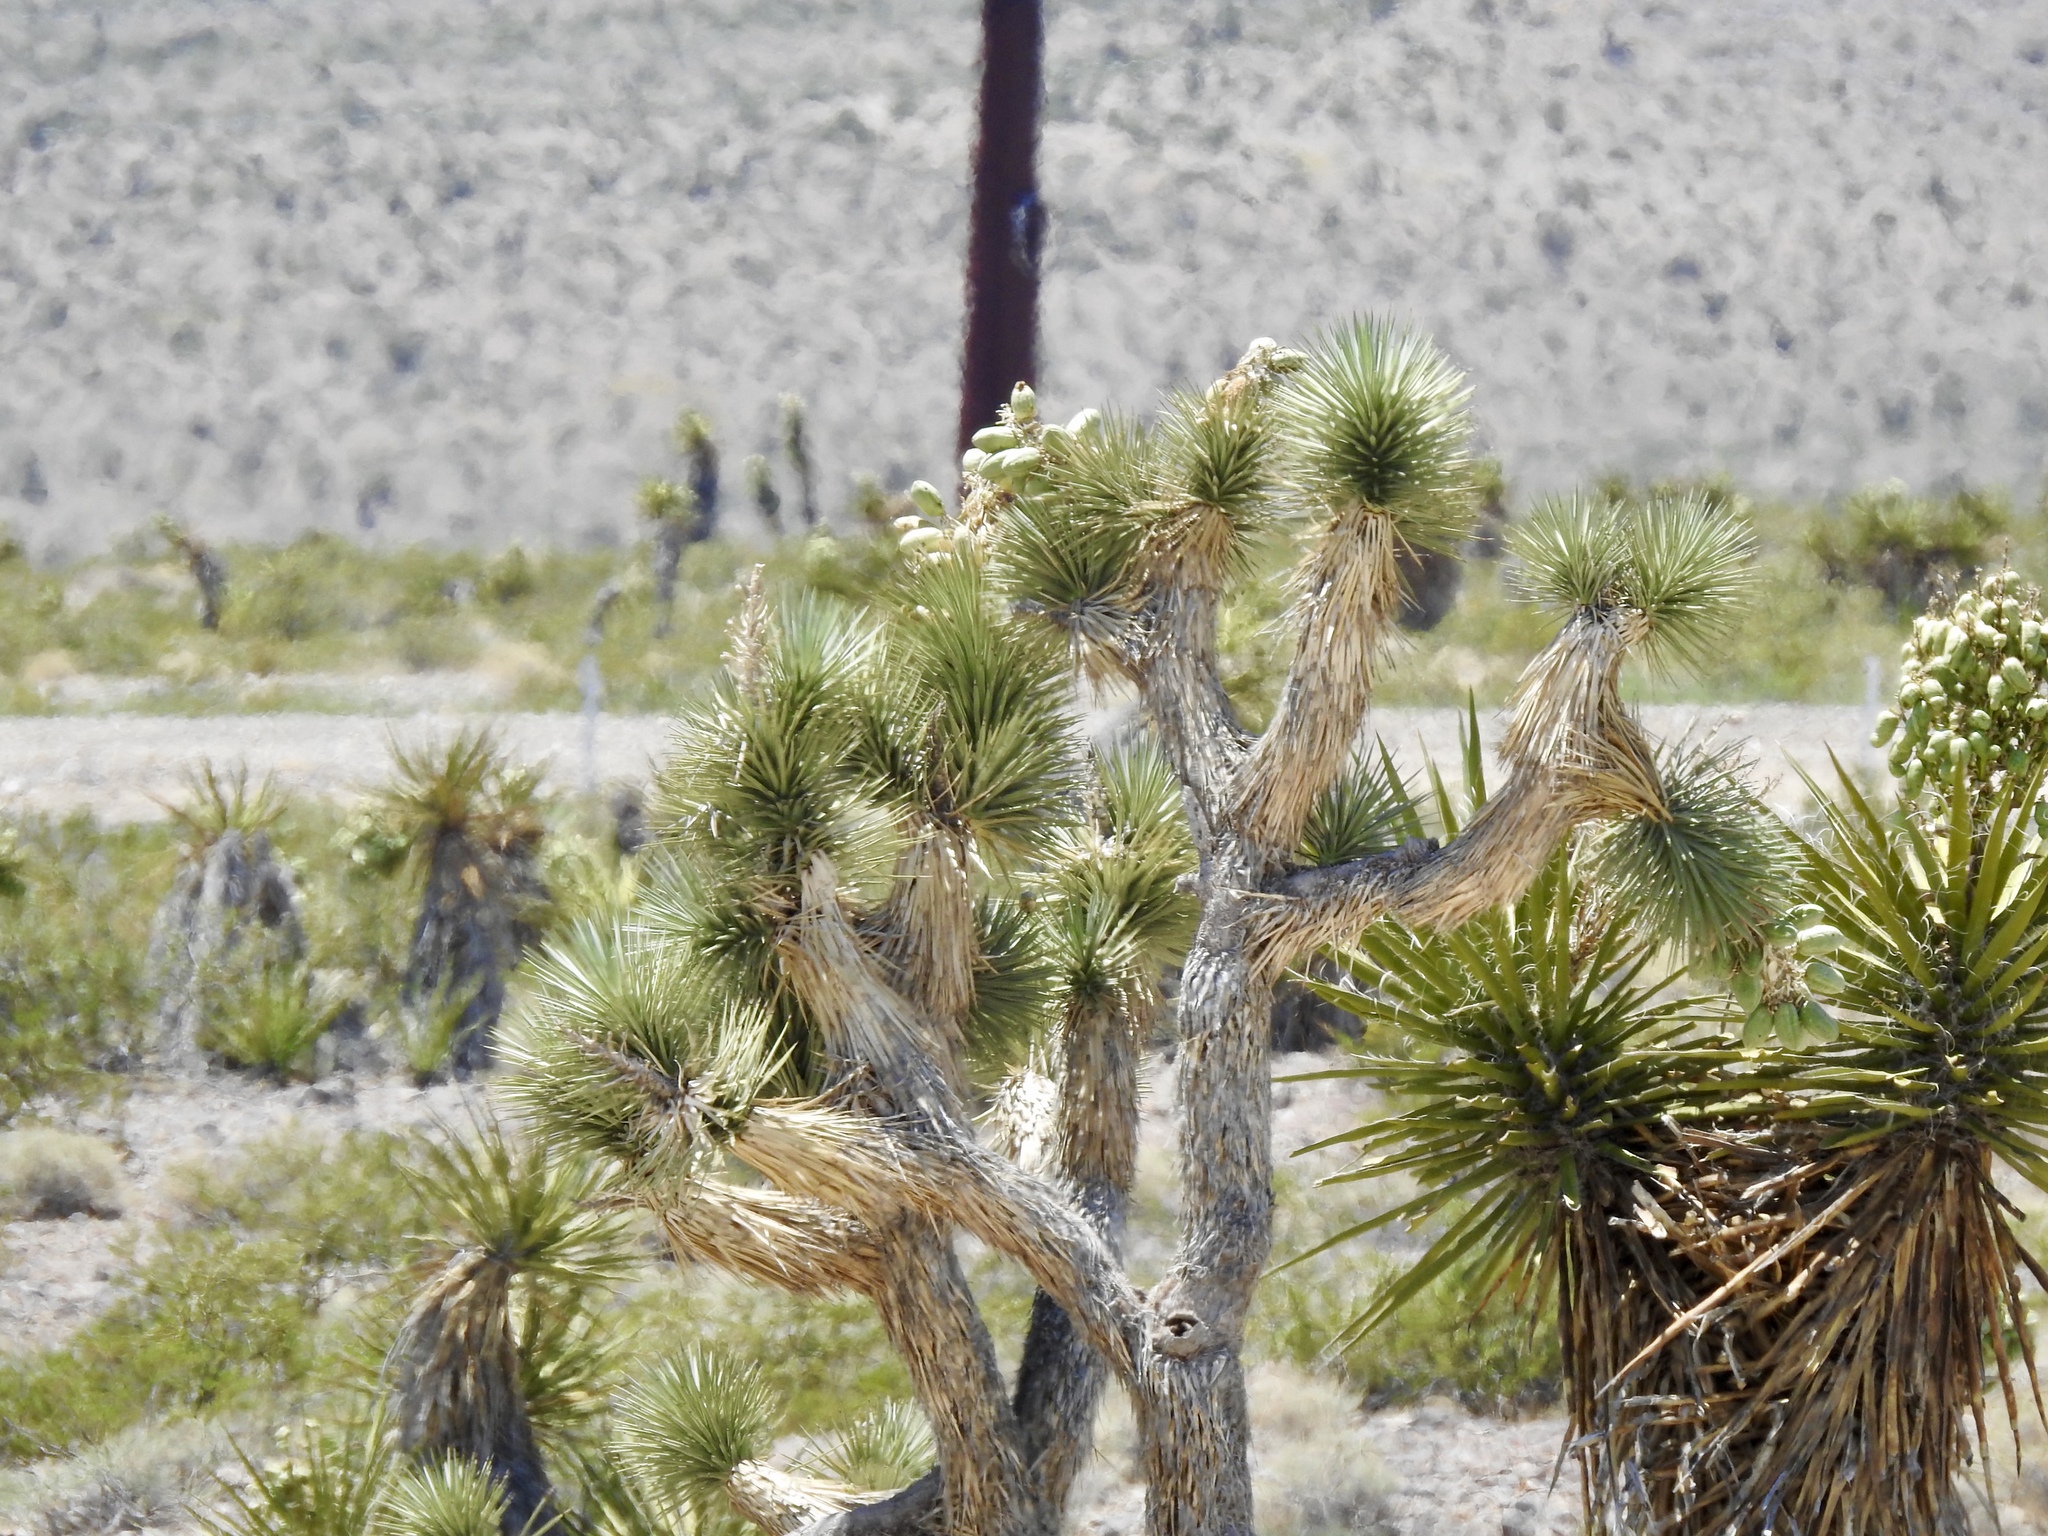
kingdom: Plantae
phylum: Tracheophyta
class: Liliopsida
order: Asparagales
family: Asparagaceae
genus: Yucca
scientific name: Yucca brevifolia
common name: Joshua tree
